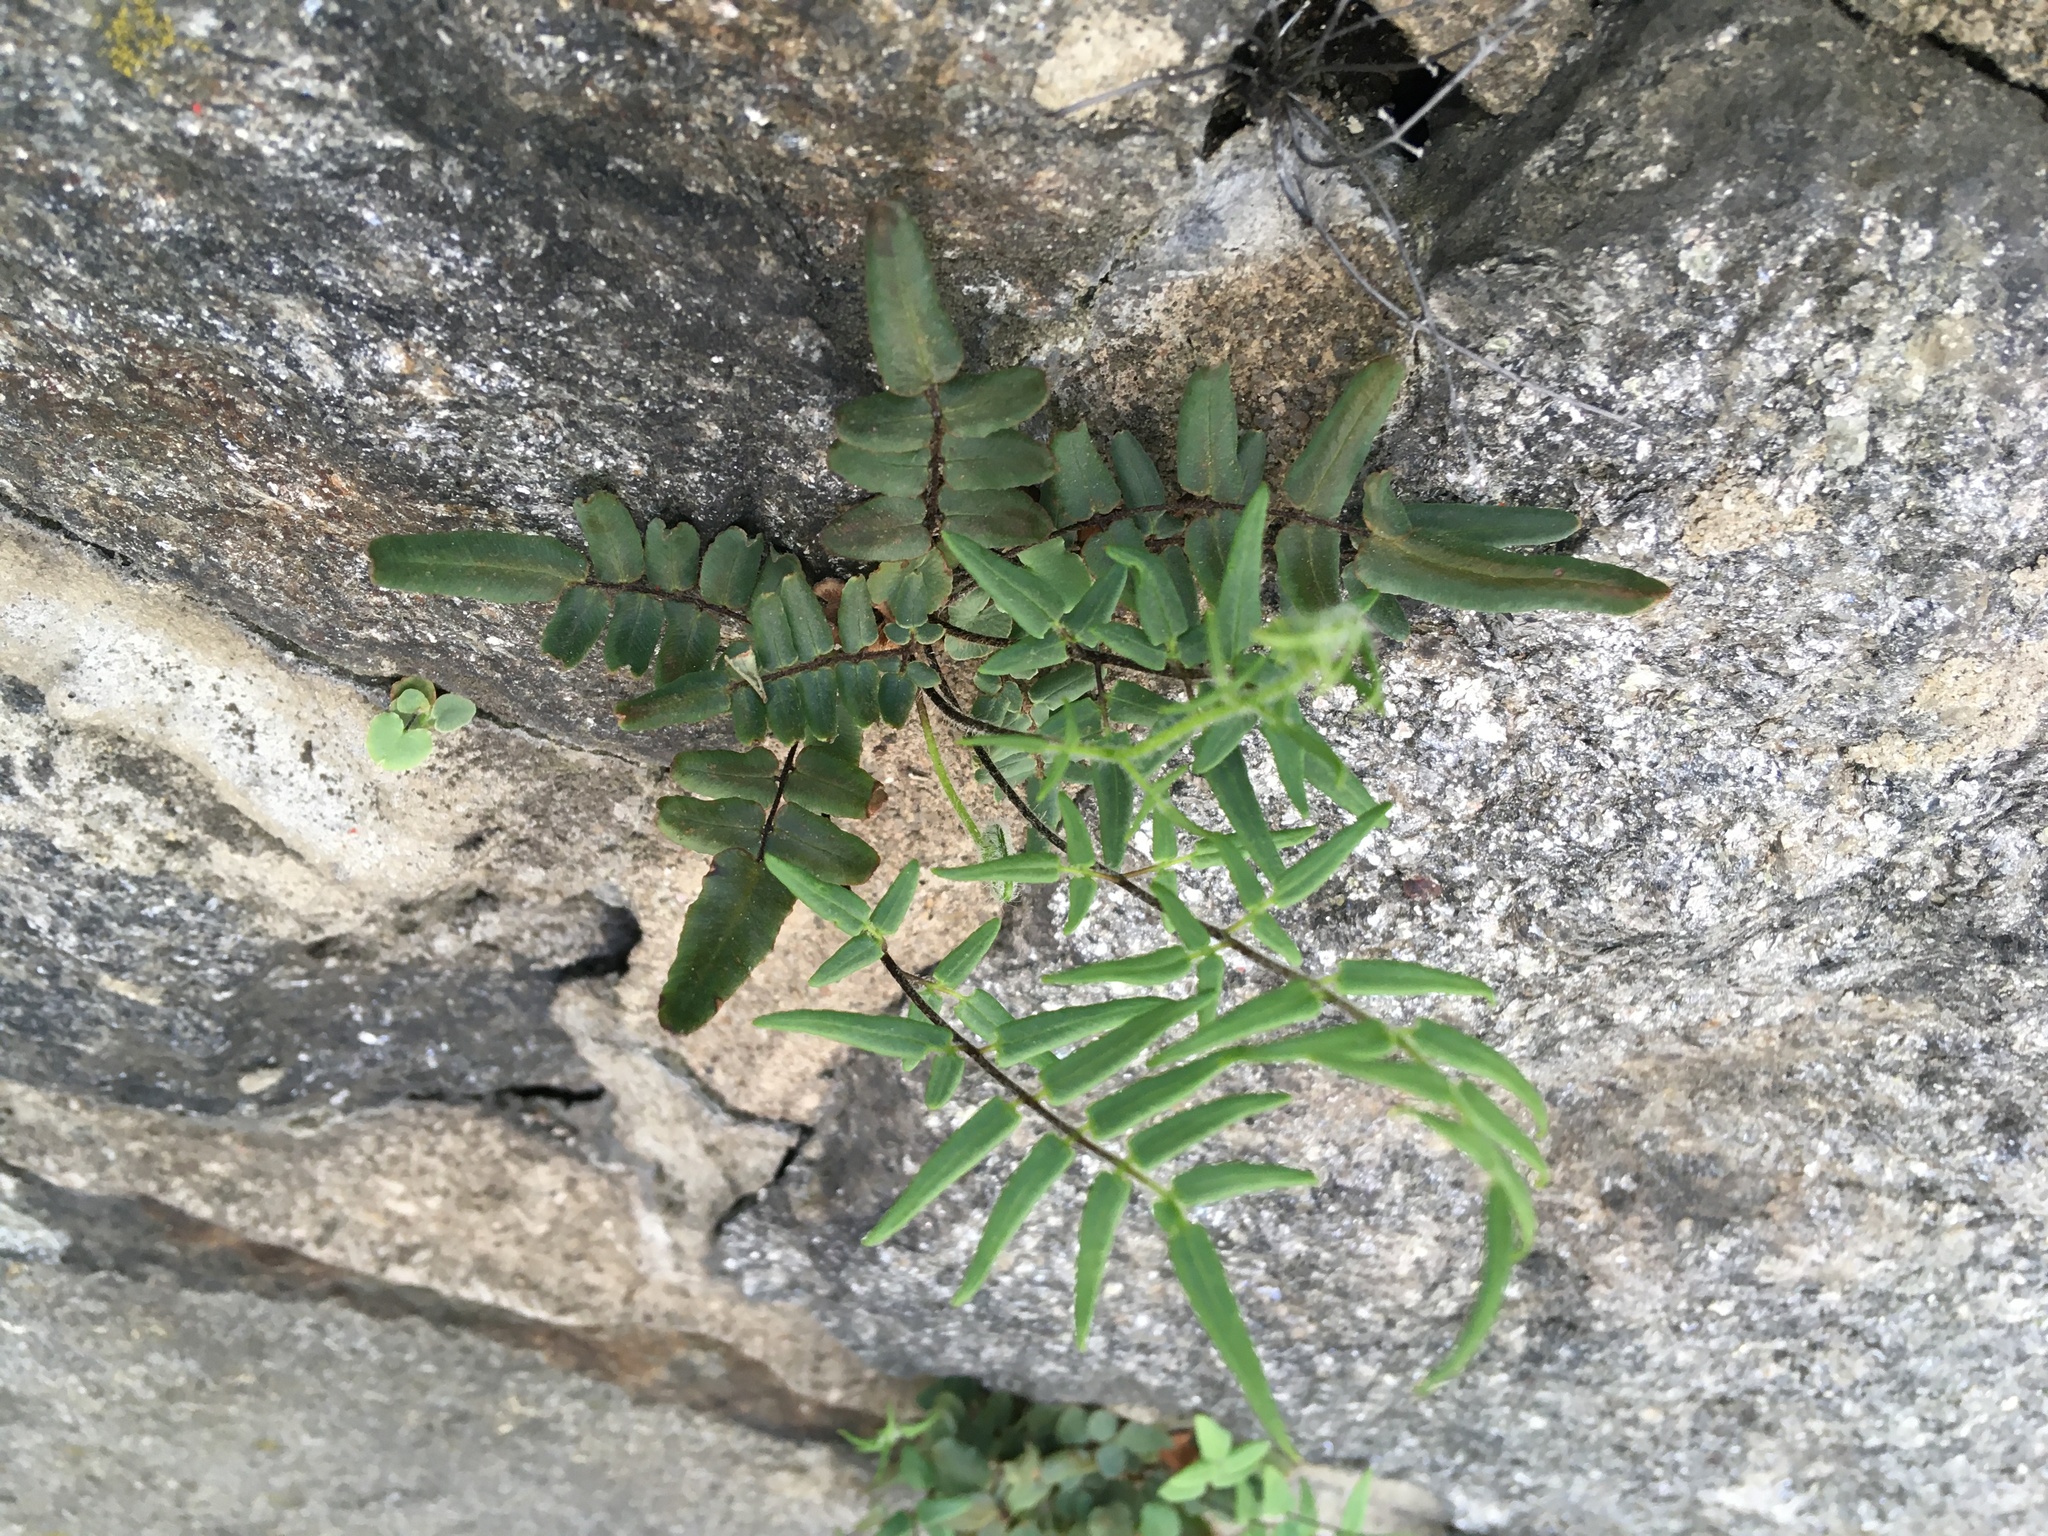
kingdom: Plantae
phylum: Tracheophyta
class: Polypodiopsida
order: Polypodiales
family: Pteridaceae
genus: Pellaea
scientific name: Pellaea atropurpurea
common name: Hairy cliffbrake
